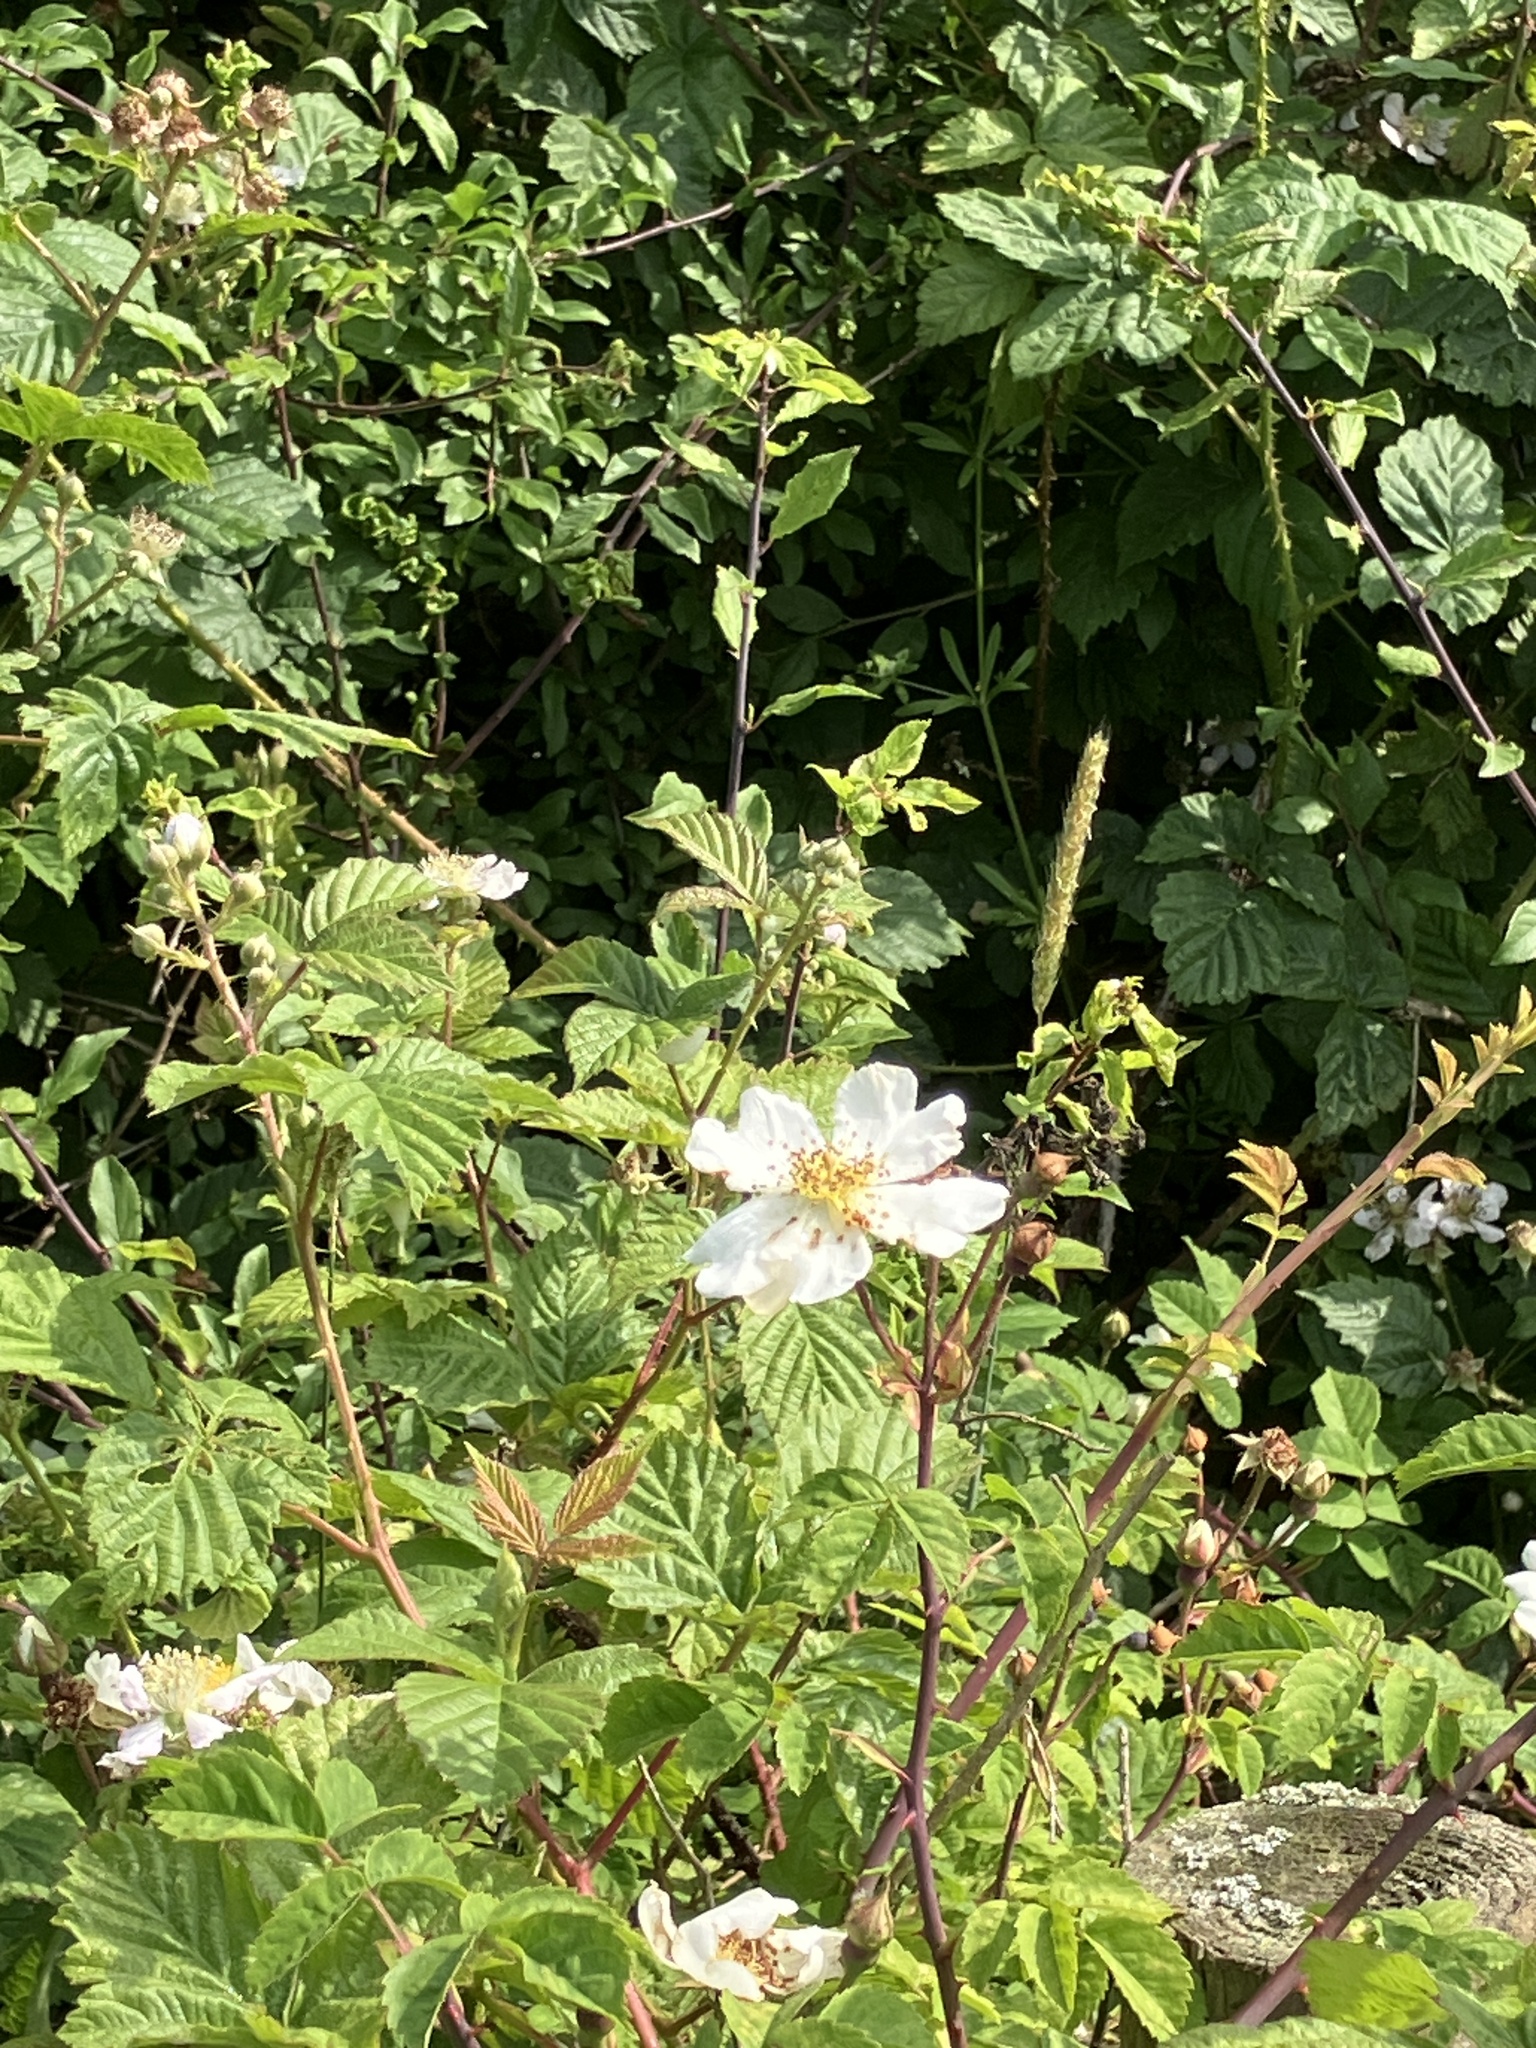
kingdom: Plantae
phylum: Tracheophyta
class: Magnoliopsida
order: Rosales
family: Rosaceae
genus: Rosa
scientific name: Rosa arvensis
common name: Field rose
